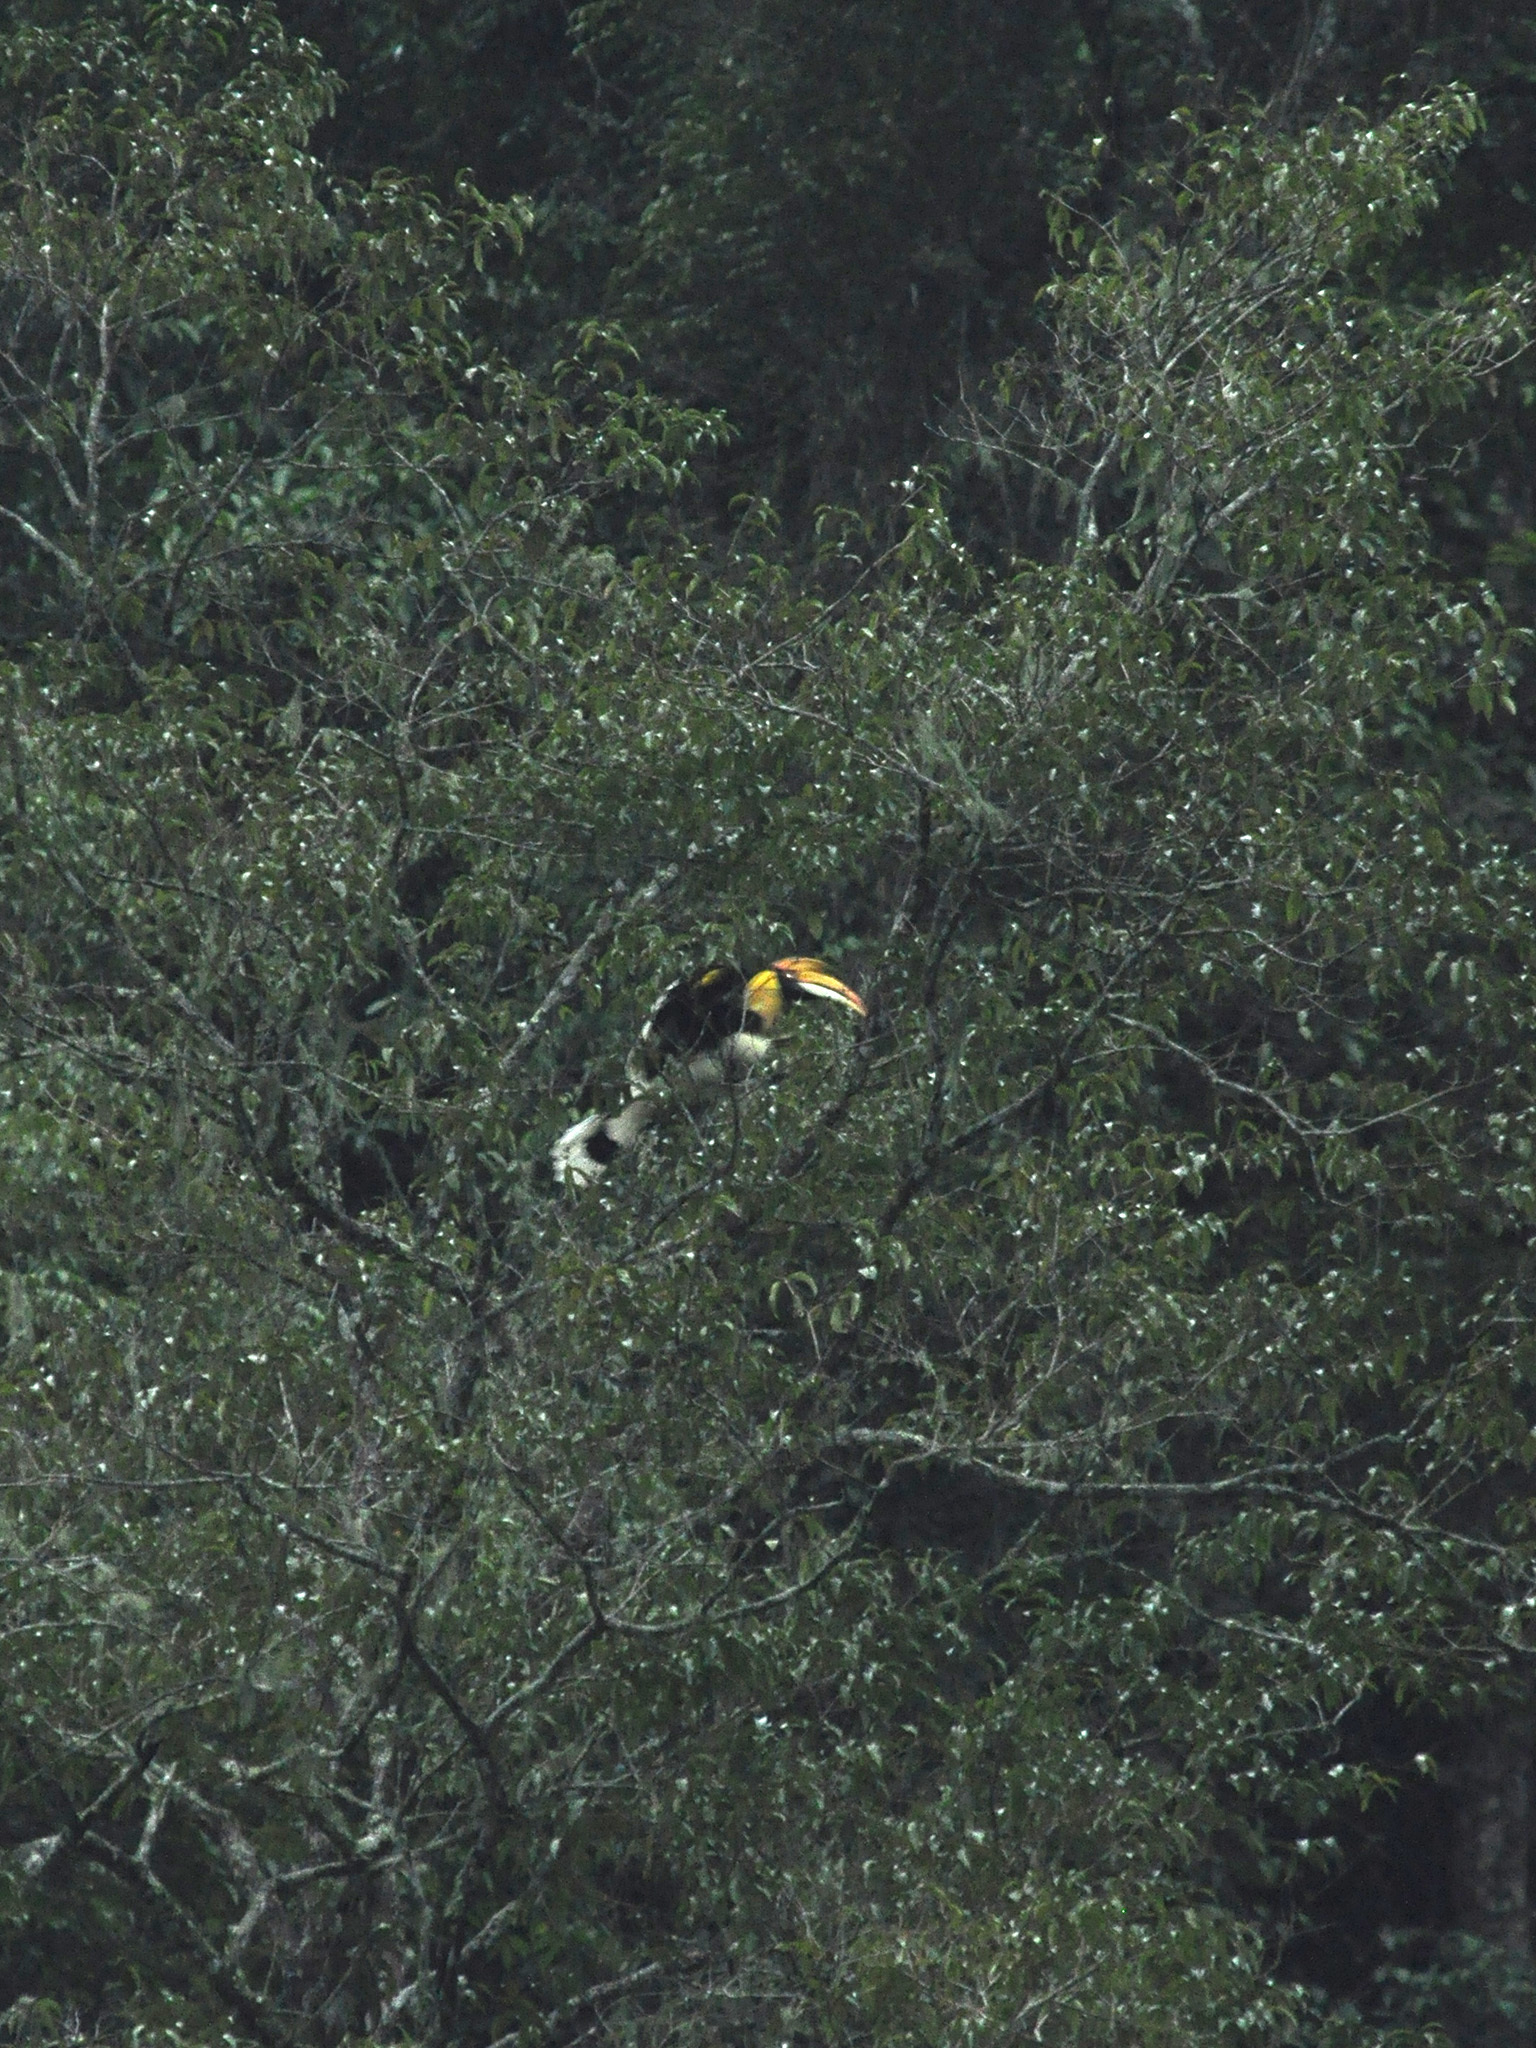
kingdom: Animalia
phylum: Chordata
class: Aves
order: Bucerotiformes
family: Bucerotidae
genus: Buceros
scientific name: Buceros bicornis
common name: Great hornbill
